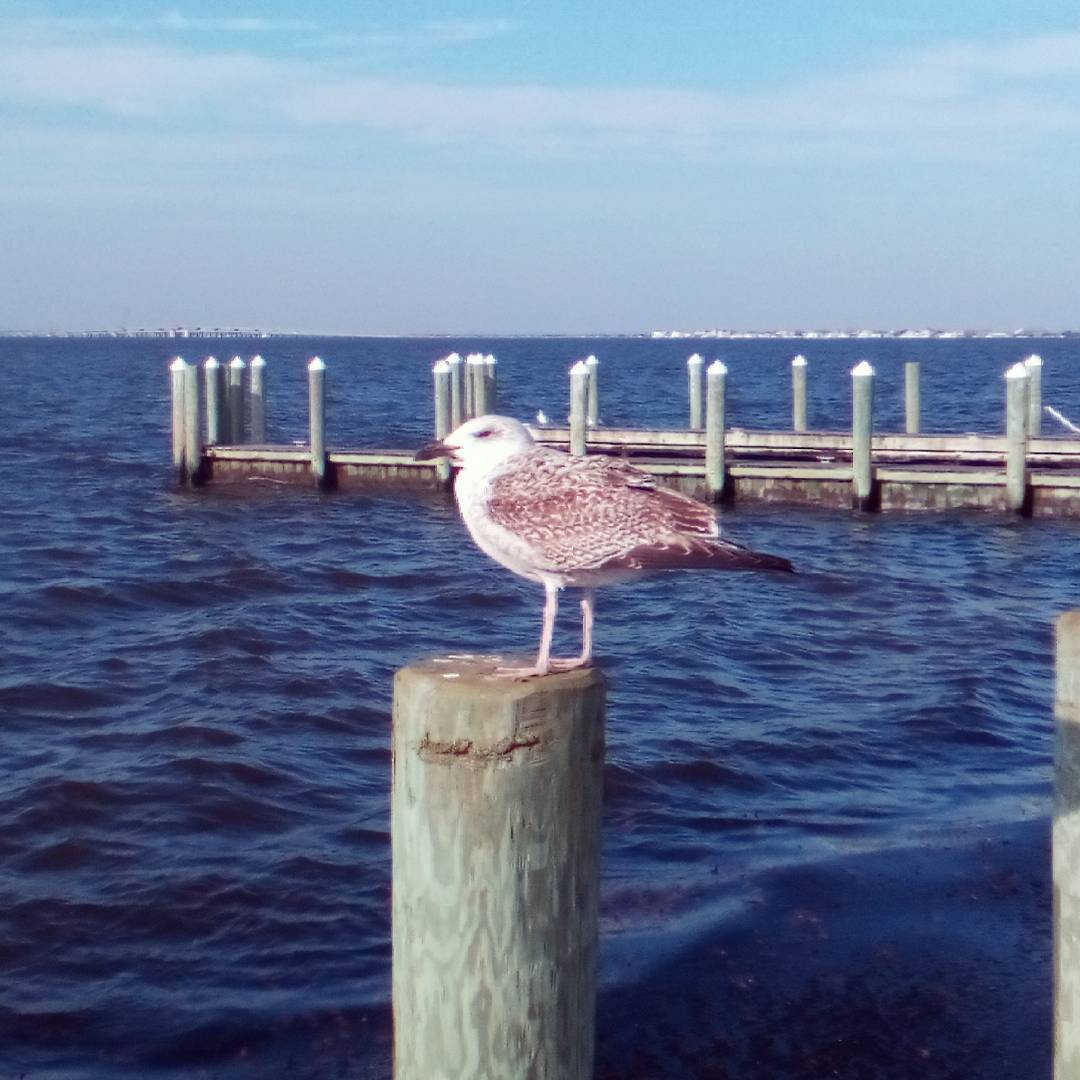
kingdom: Animalia
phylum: Chordata
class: Aves
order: Charadriiformes
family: Laridae
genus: Larus
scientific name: Larus marinus
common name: Great black-backed gull
